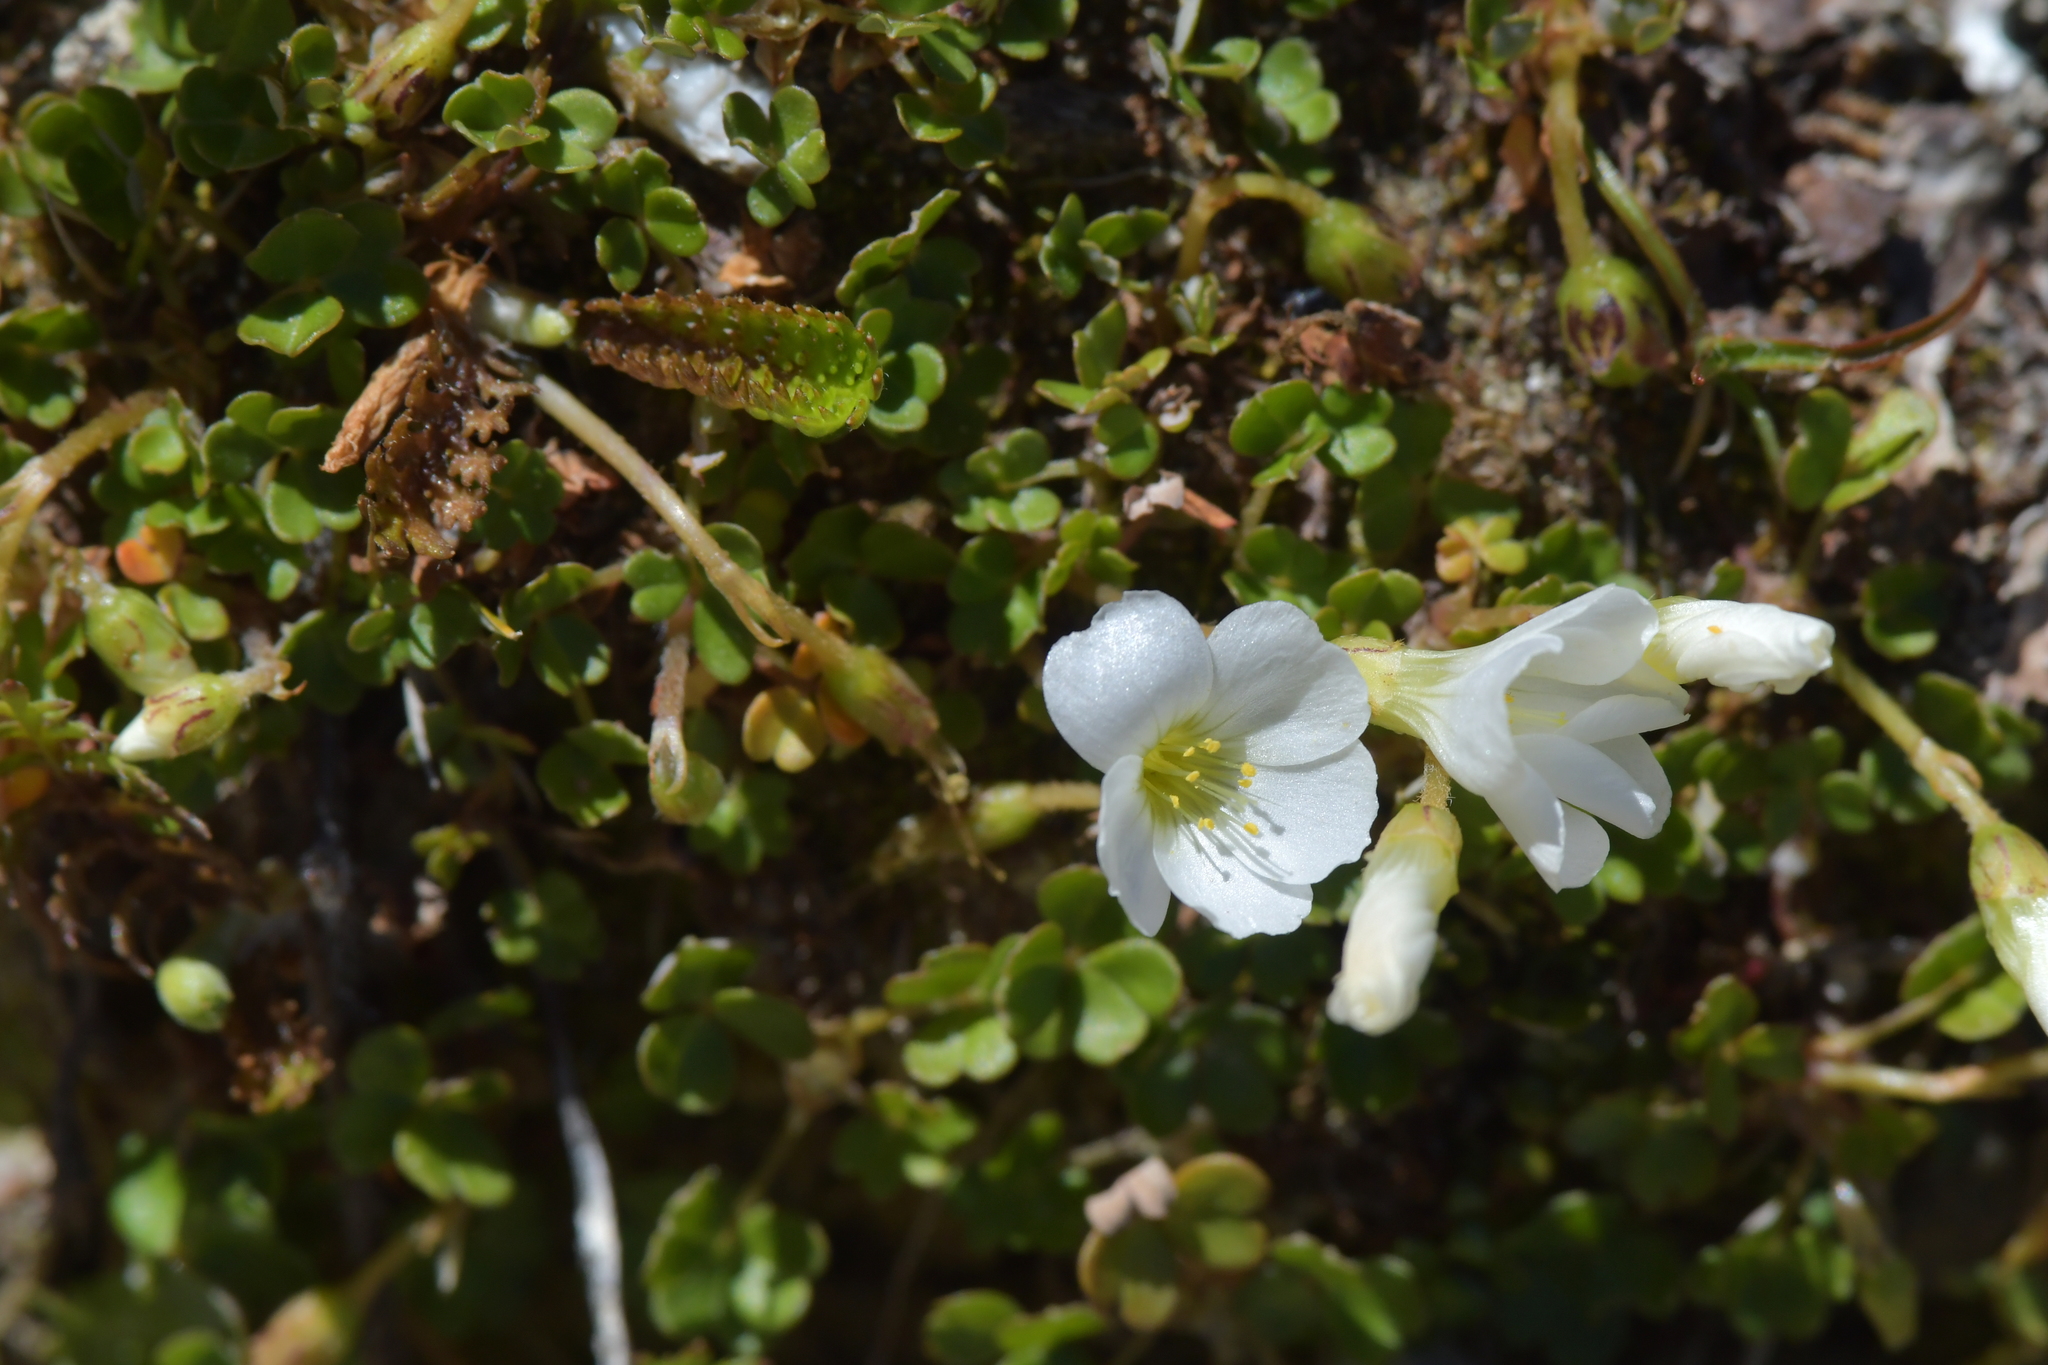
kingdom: Plantae
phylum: Tracheophyta
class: Magnoliopsida
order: Oxalidales
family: Oxalidaceae
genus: Oxalis
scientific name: Oxalis magellanica
